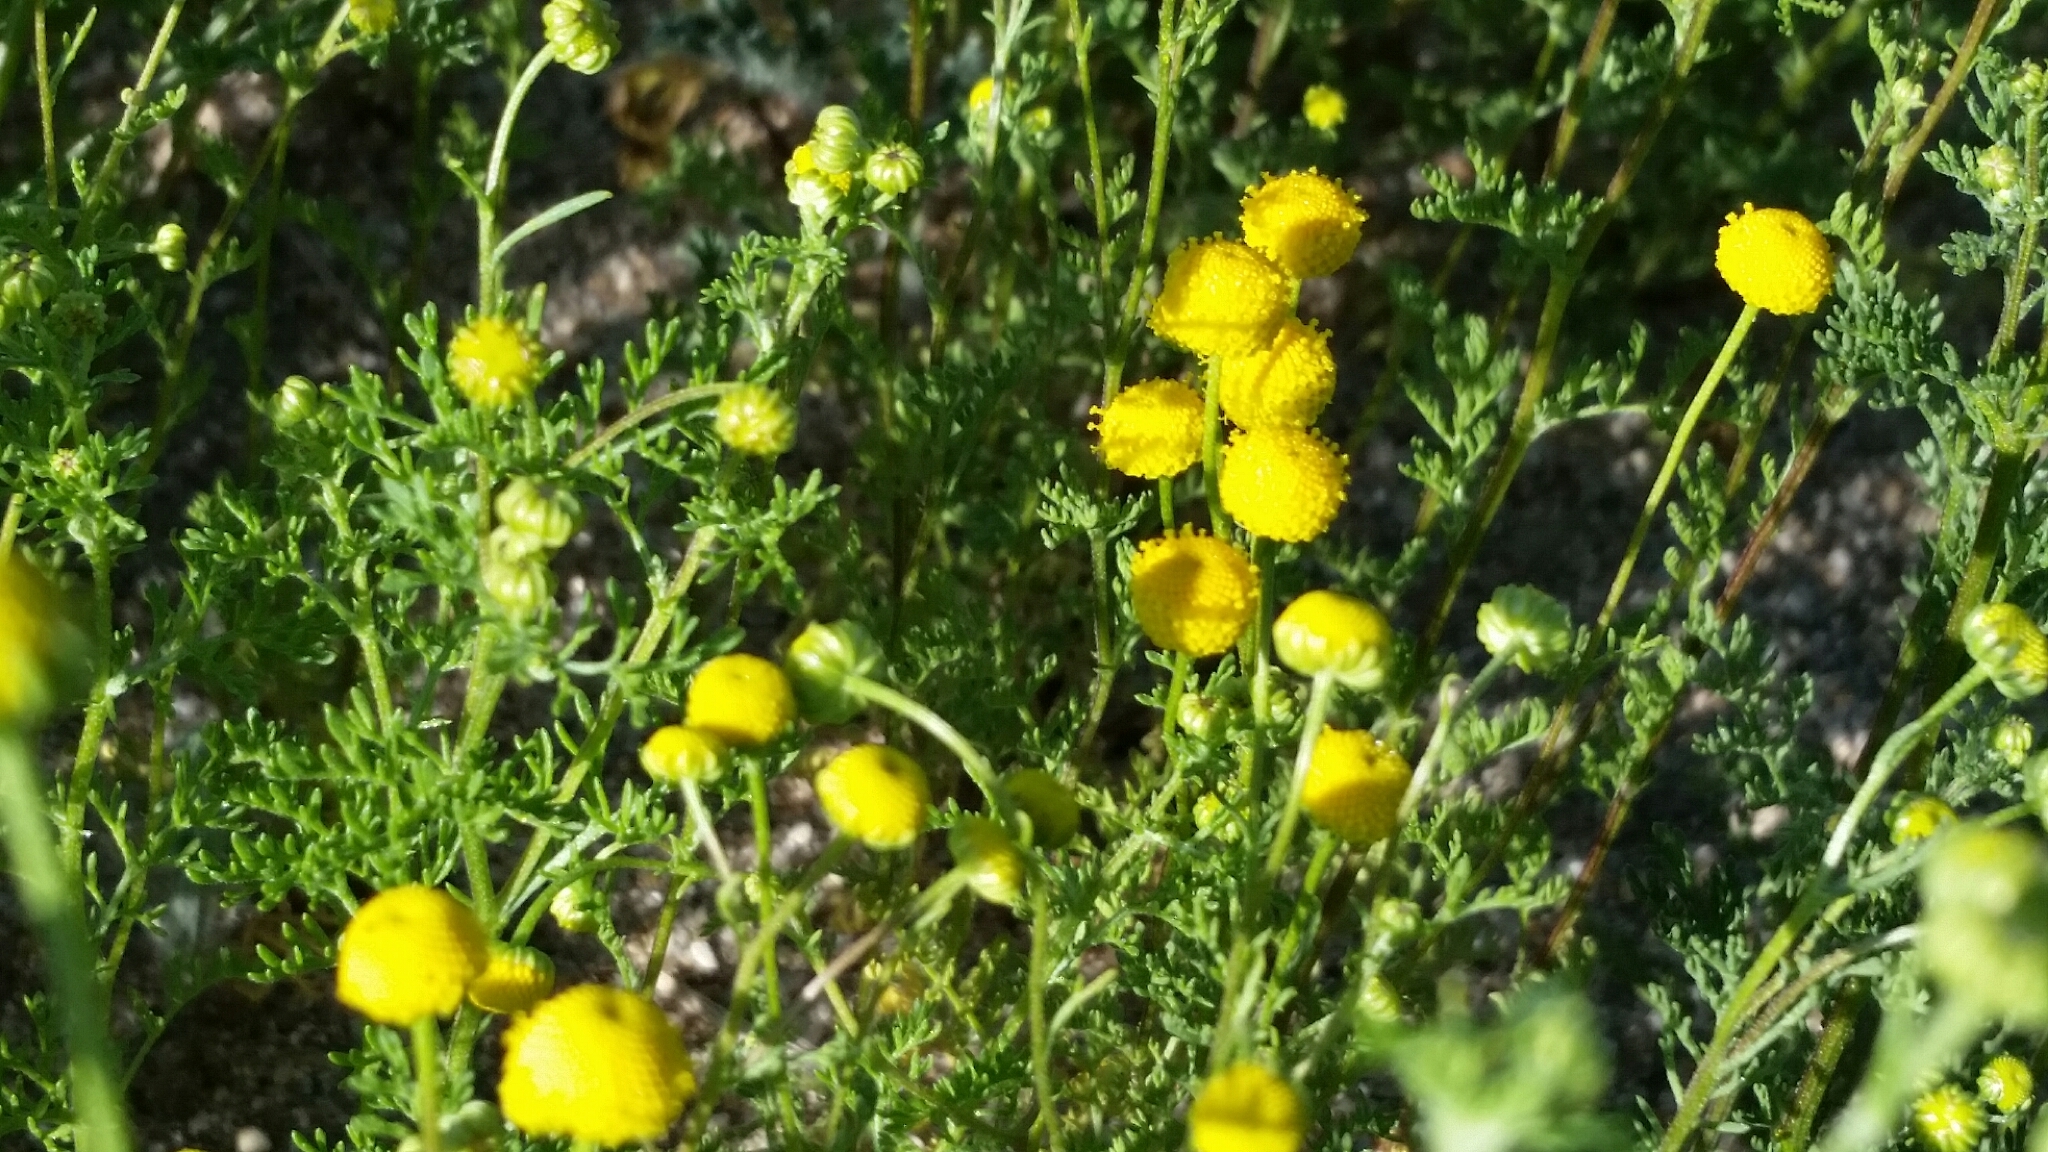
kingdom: Plantae
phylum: Tracheophyta
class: Magnoliopsida
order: Asterales
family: Asteraceae
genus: Oncosiphon
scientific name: Oncosiphon pilulifer
